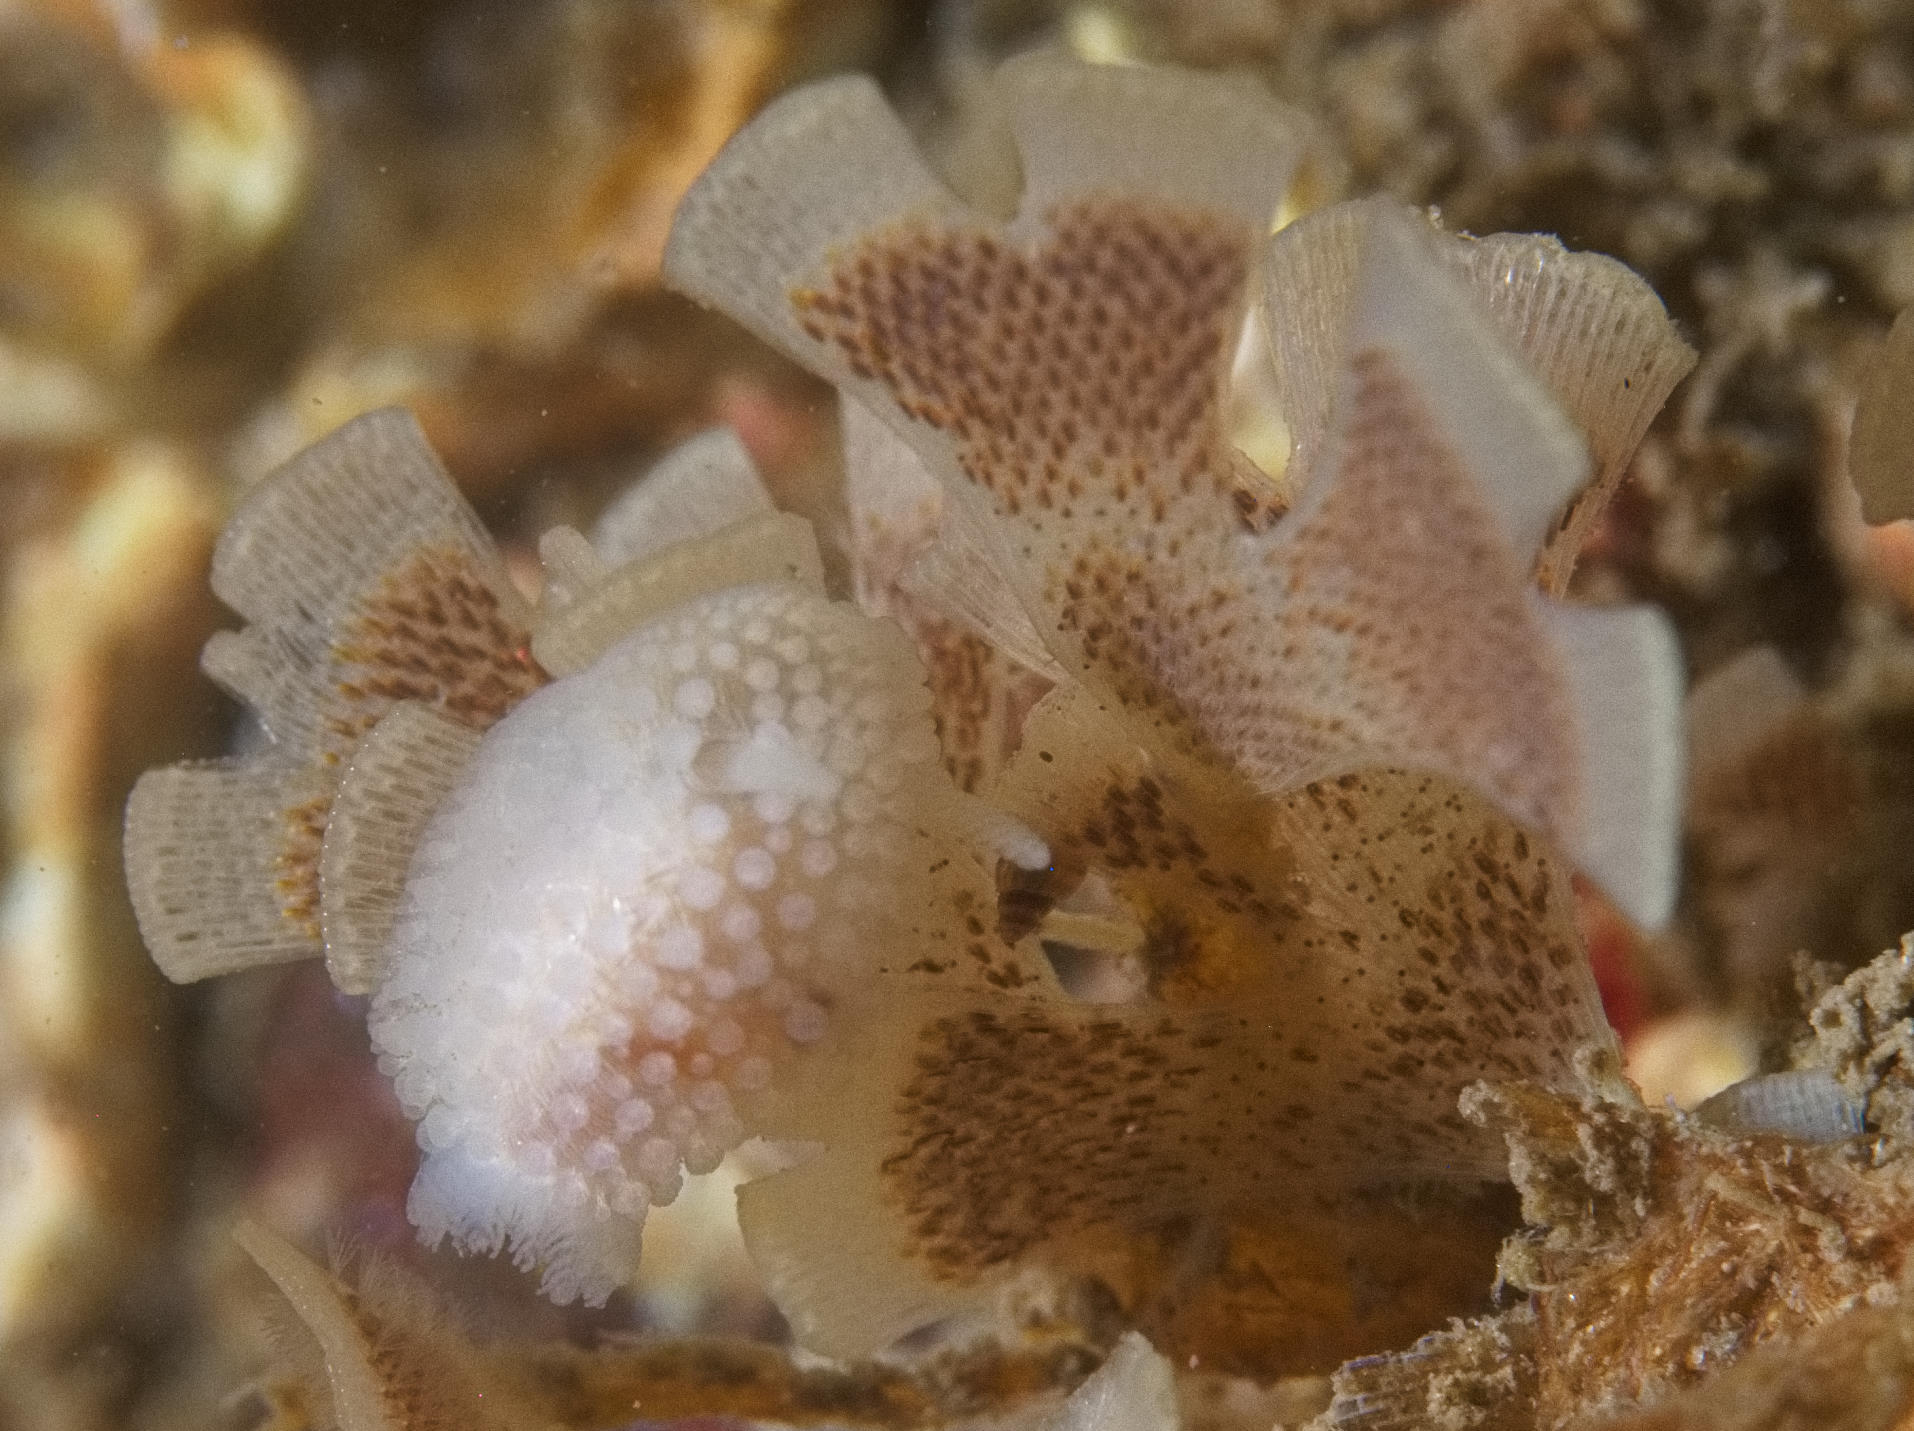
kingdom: Animalia
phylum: Mollusca
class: Gastropoda
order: Nudibranchia
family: Onchidorididae
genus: Onchidoris
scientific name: Onchidoris muricata
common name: Rough doris
